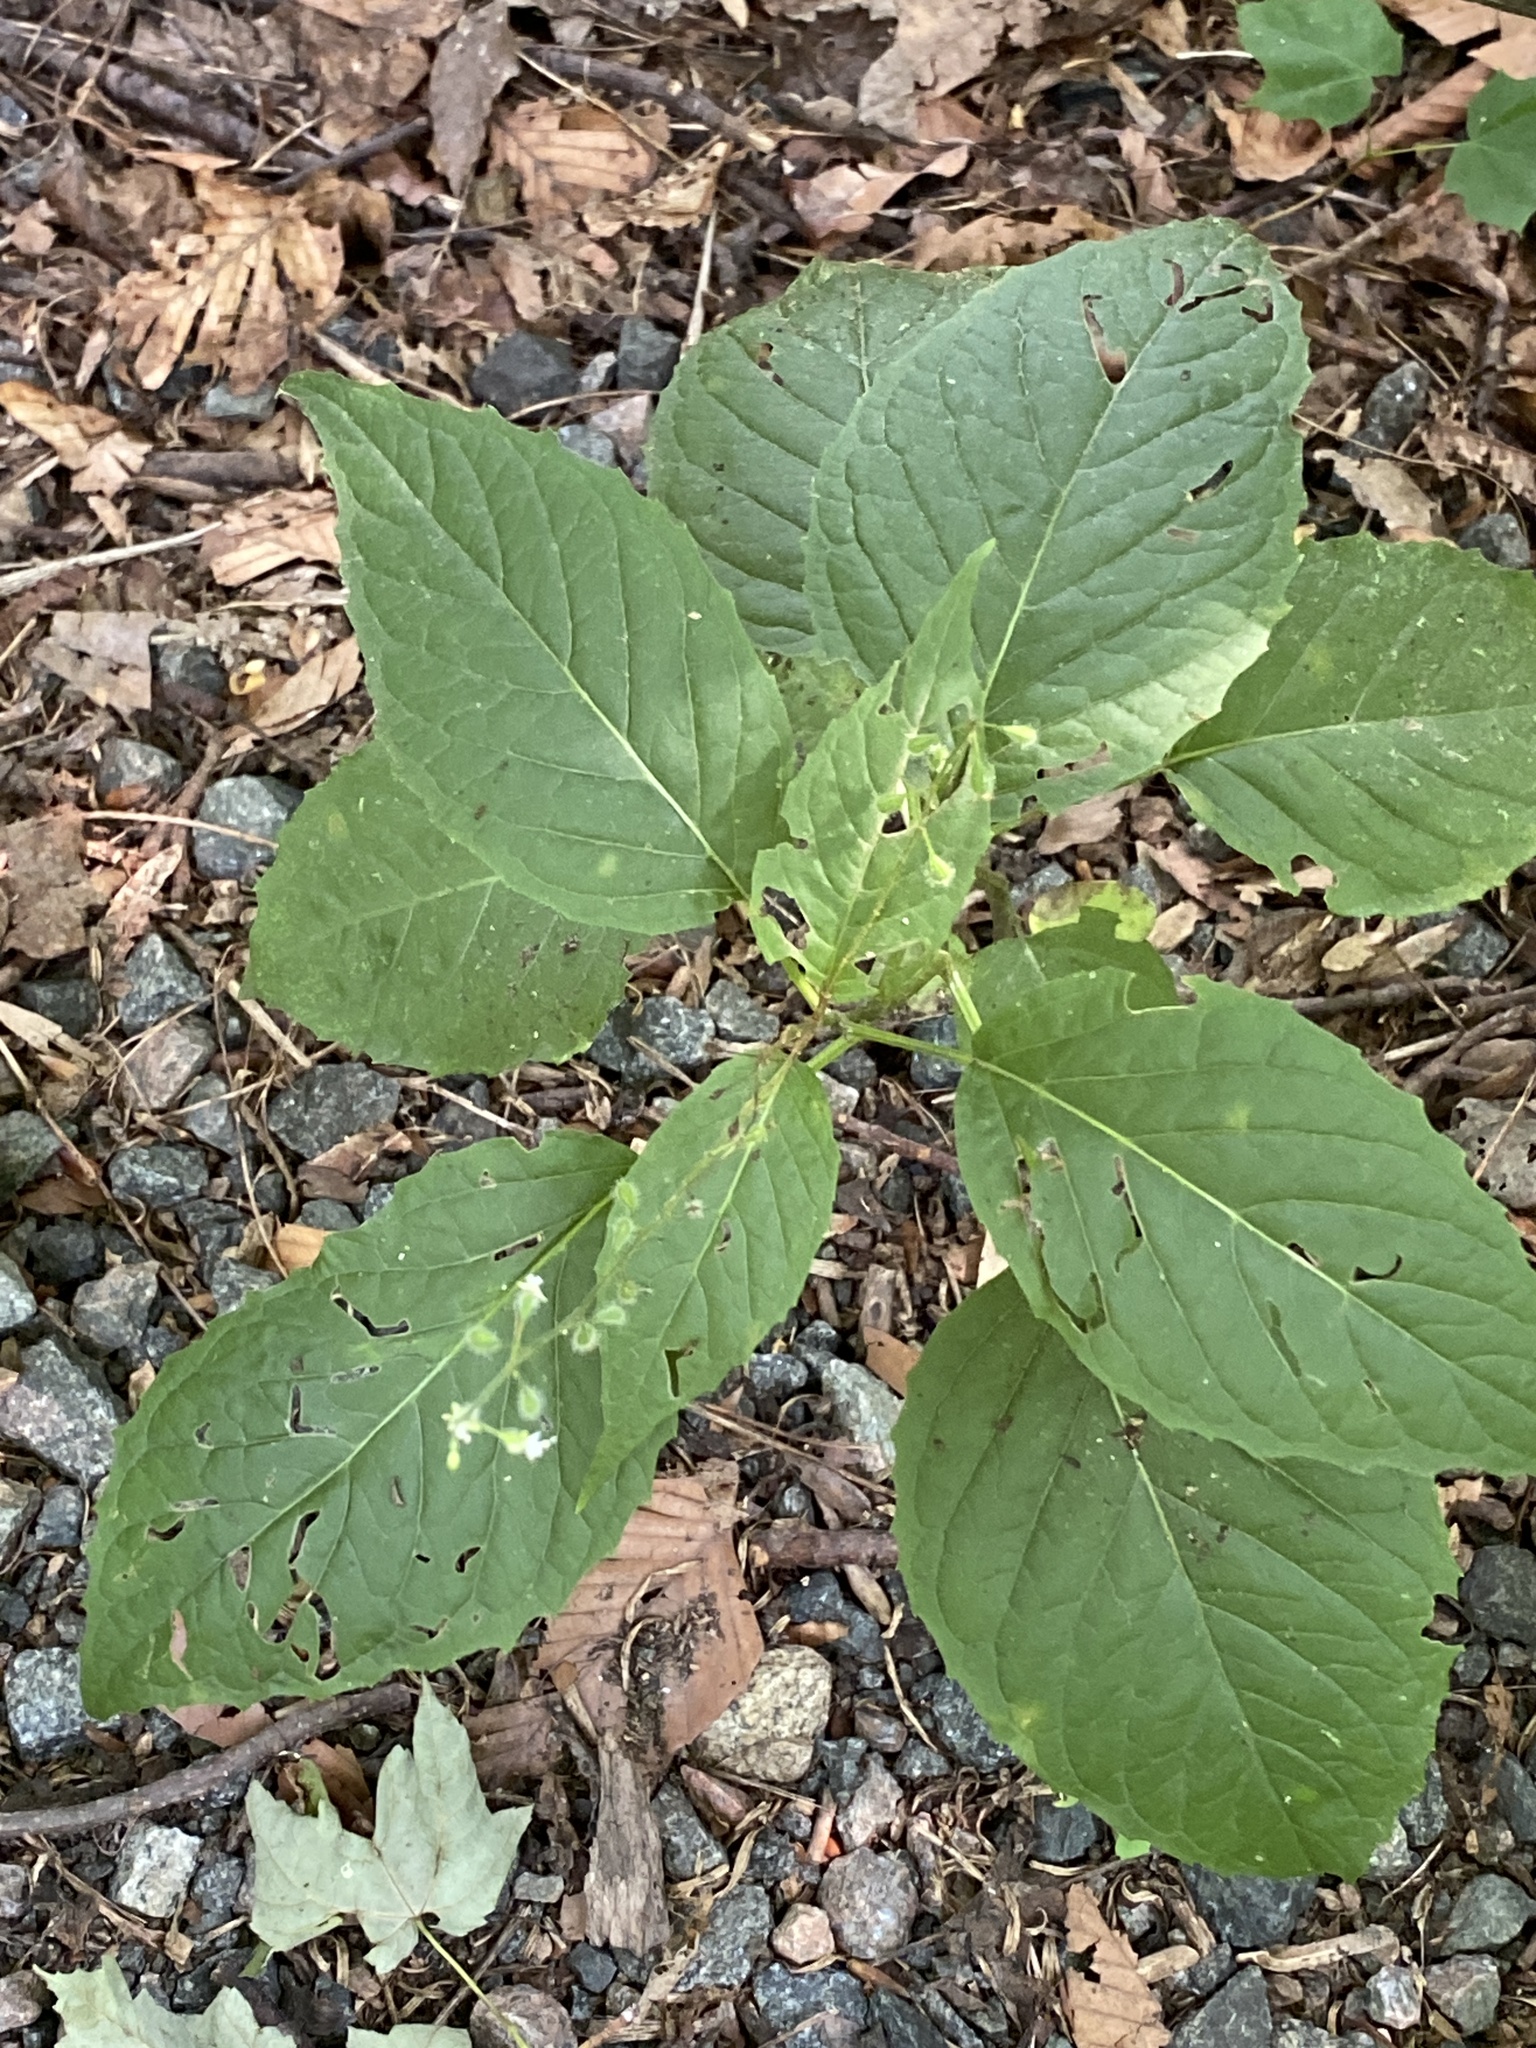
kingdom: Plantae
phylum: Tracheophyta
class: Magnoliopsida
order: Myrtales
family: Onagraceae
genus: Circaea
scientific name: Circaea canadensis
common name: Broad-leaved enchanter's nightshade
